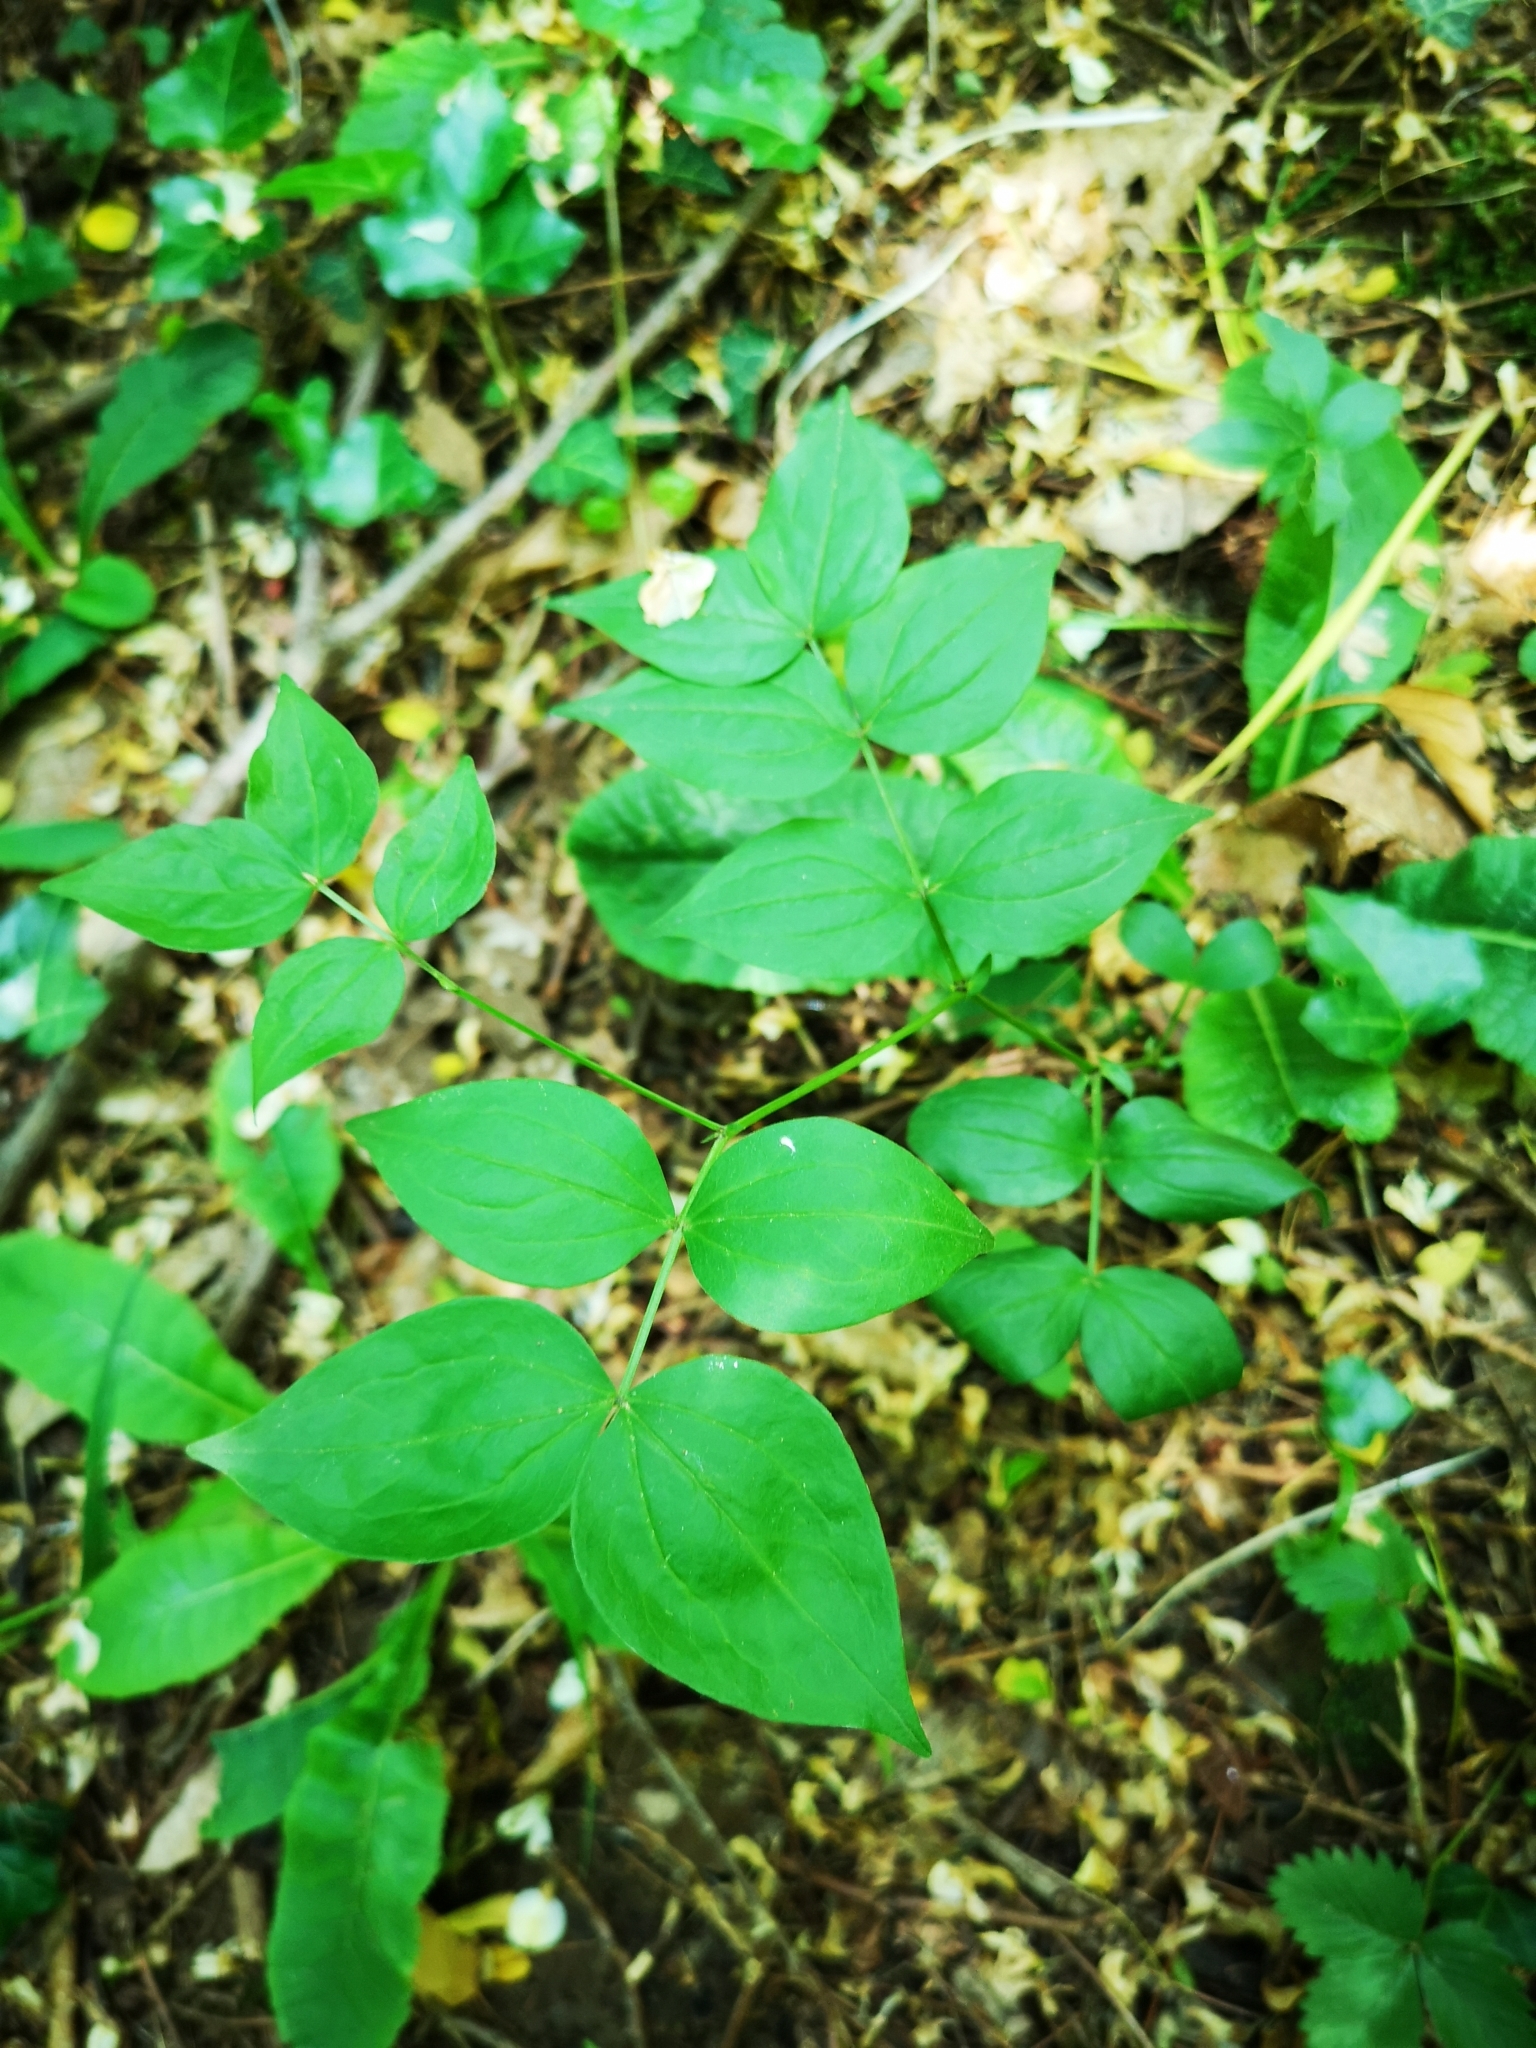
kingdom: Plantae
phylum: Tracheophyta
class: Magnoliopsida
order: Fabales
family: Fabaceae
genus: Lathyrus
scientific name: Lathyrus vernus
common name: Spring pea
